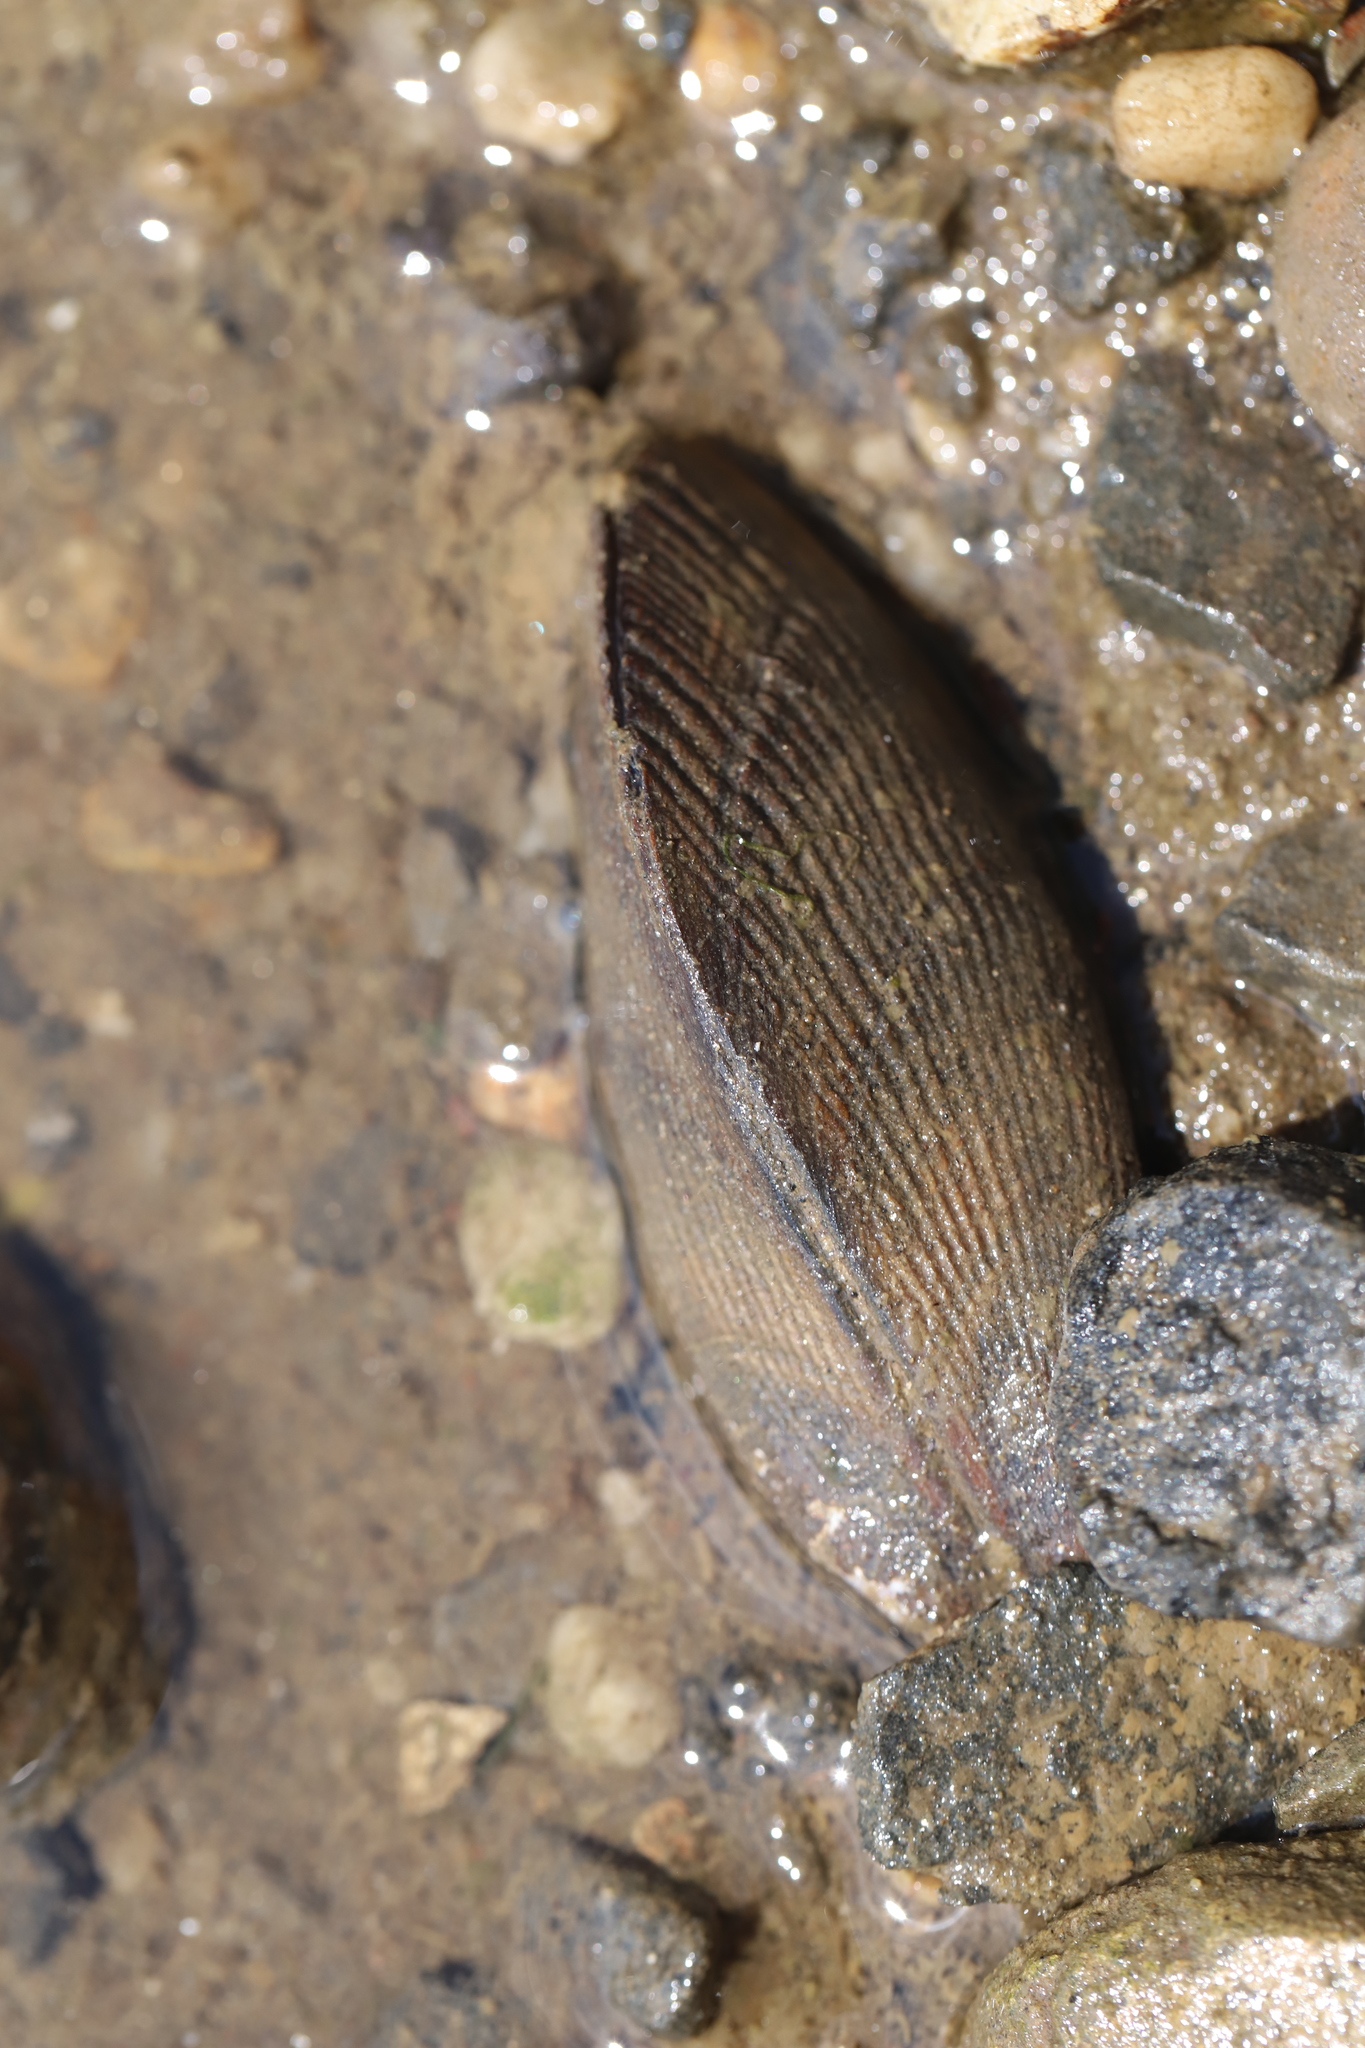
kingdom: Animalia
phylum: Mollusca
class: Bivalvia
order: Mytilida
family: Mytilidae
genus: Geukensia
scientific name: Geukensia demissa
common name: Ribbed mussel
